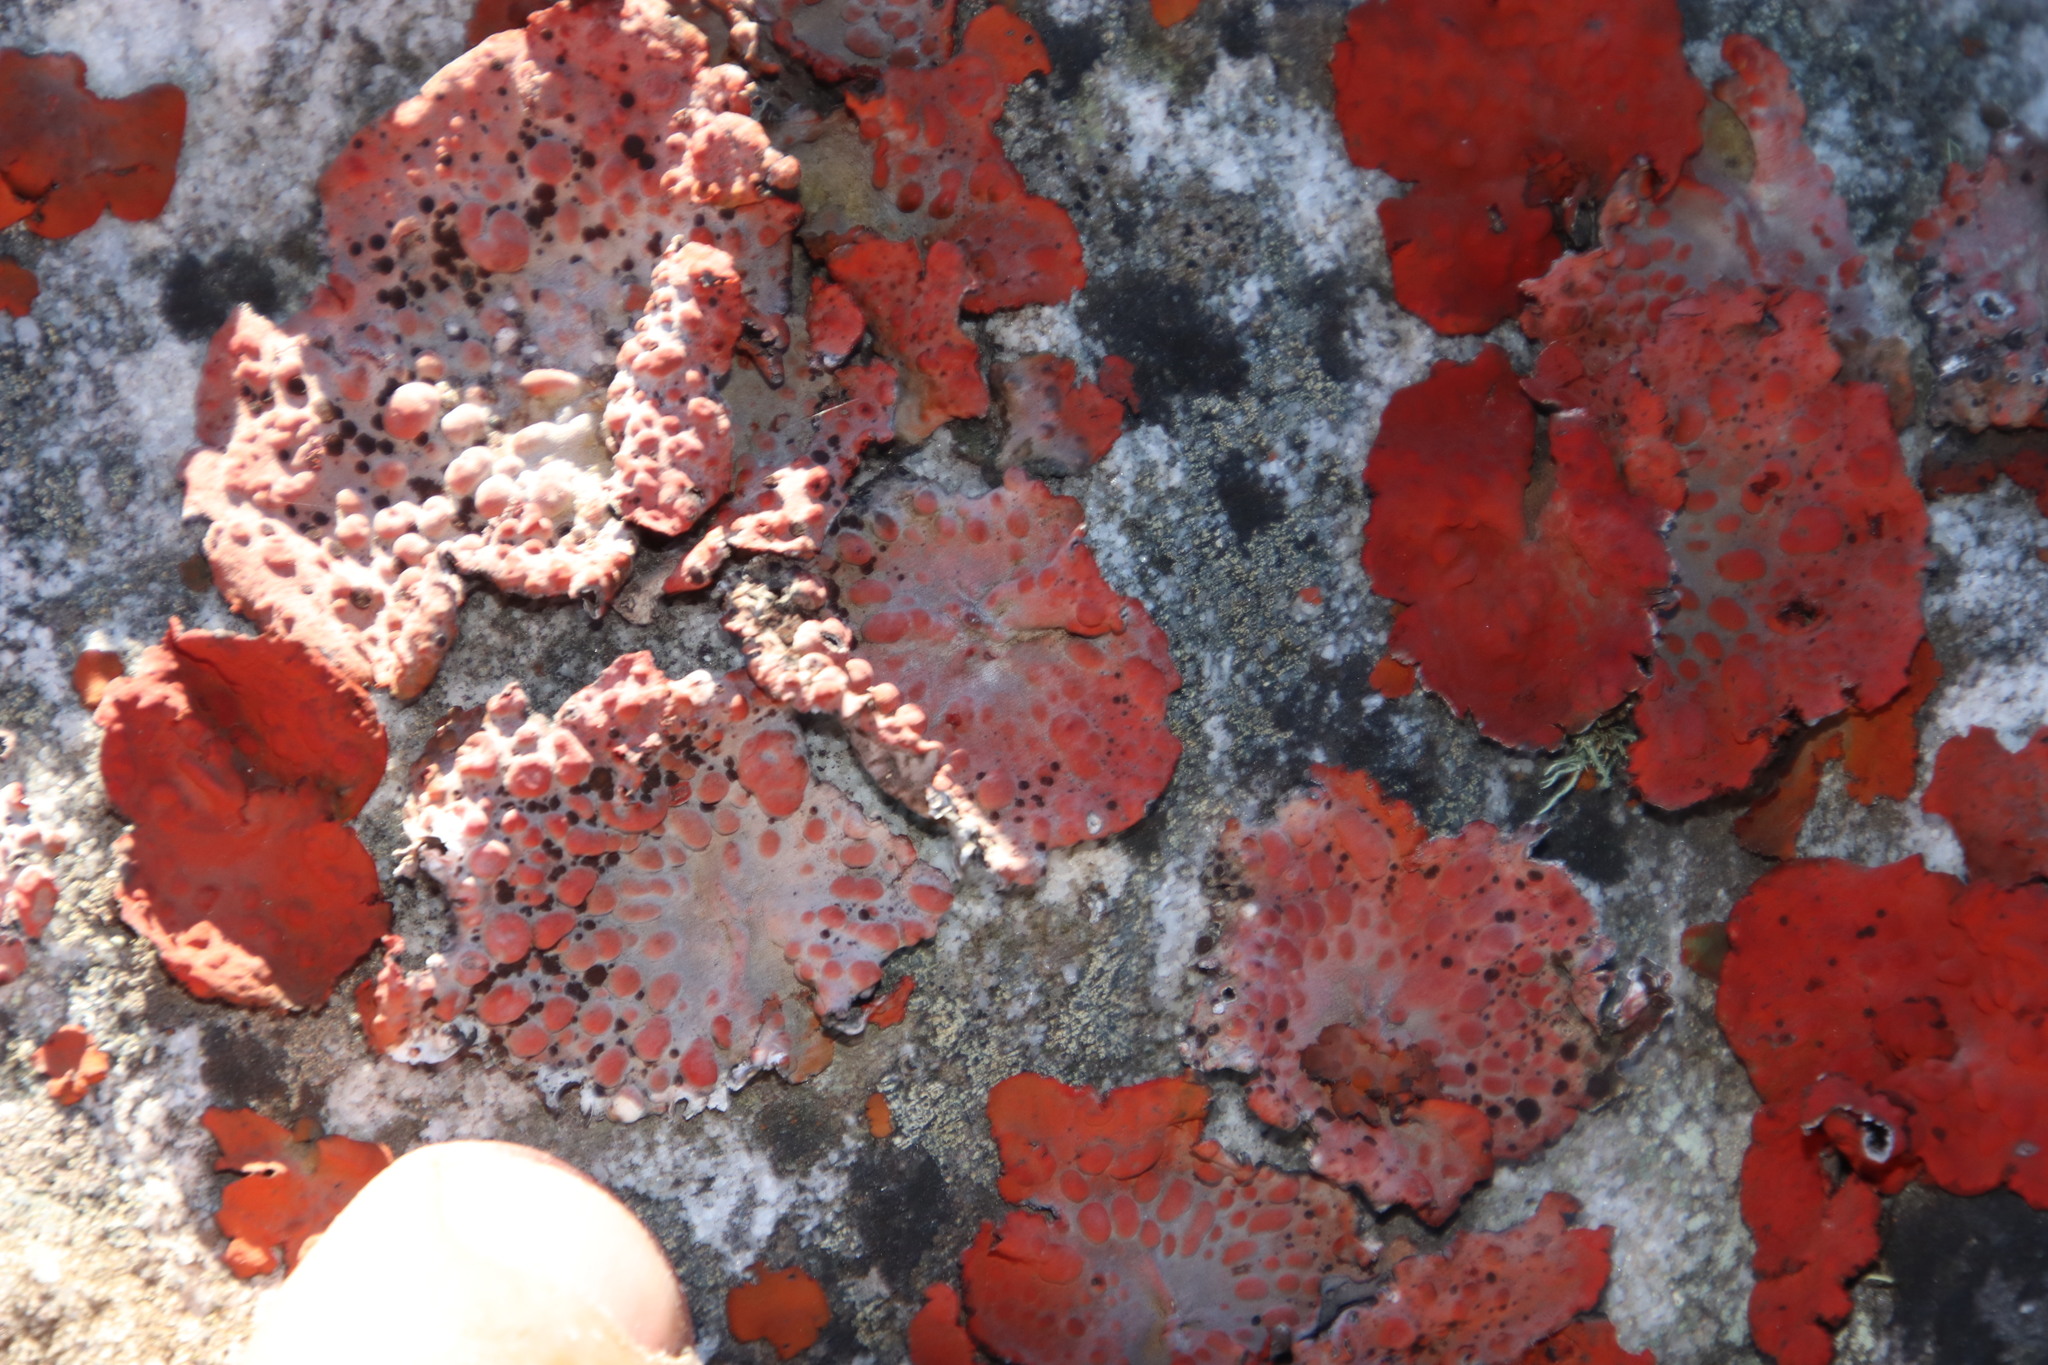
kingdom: Fungi
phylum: Ascomycota
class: Lecanoromycetes
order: Umbilicariales
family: Umbilicariaceae
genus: Lasallia
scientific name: Lasallia rubiginosa
